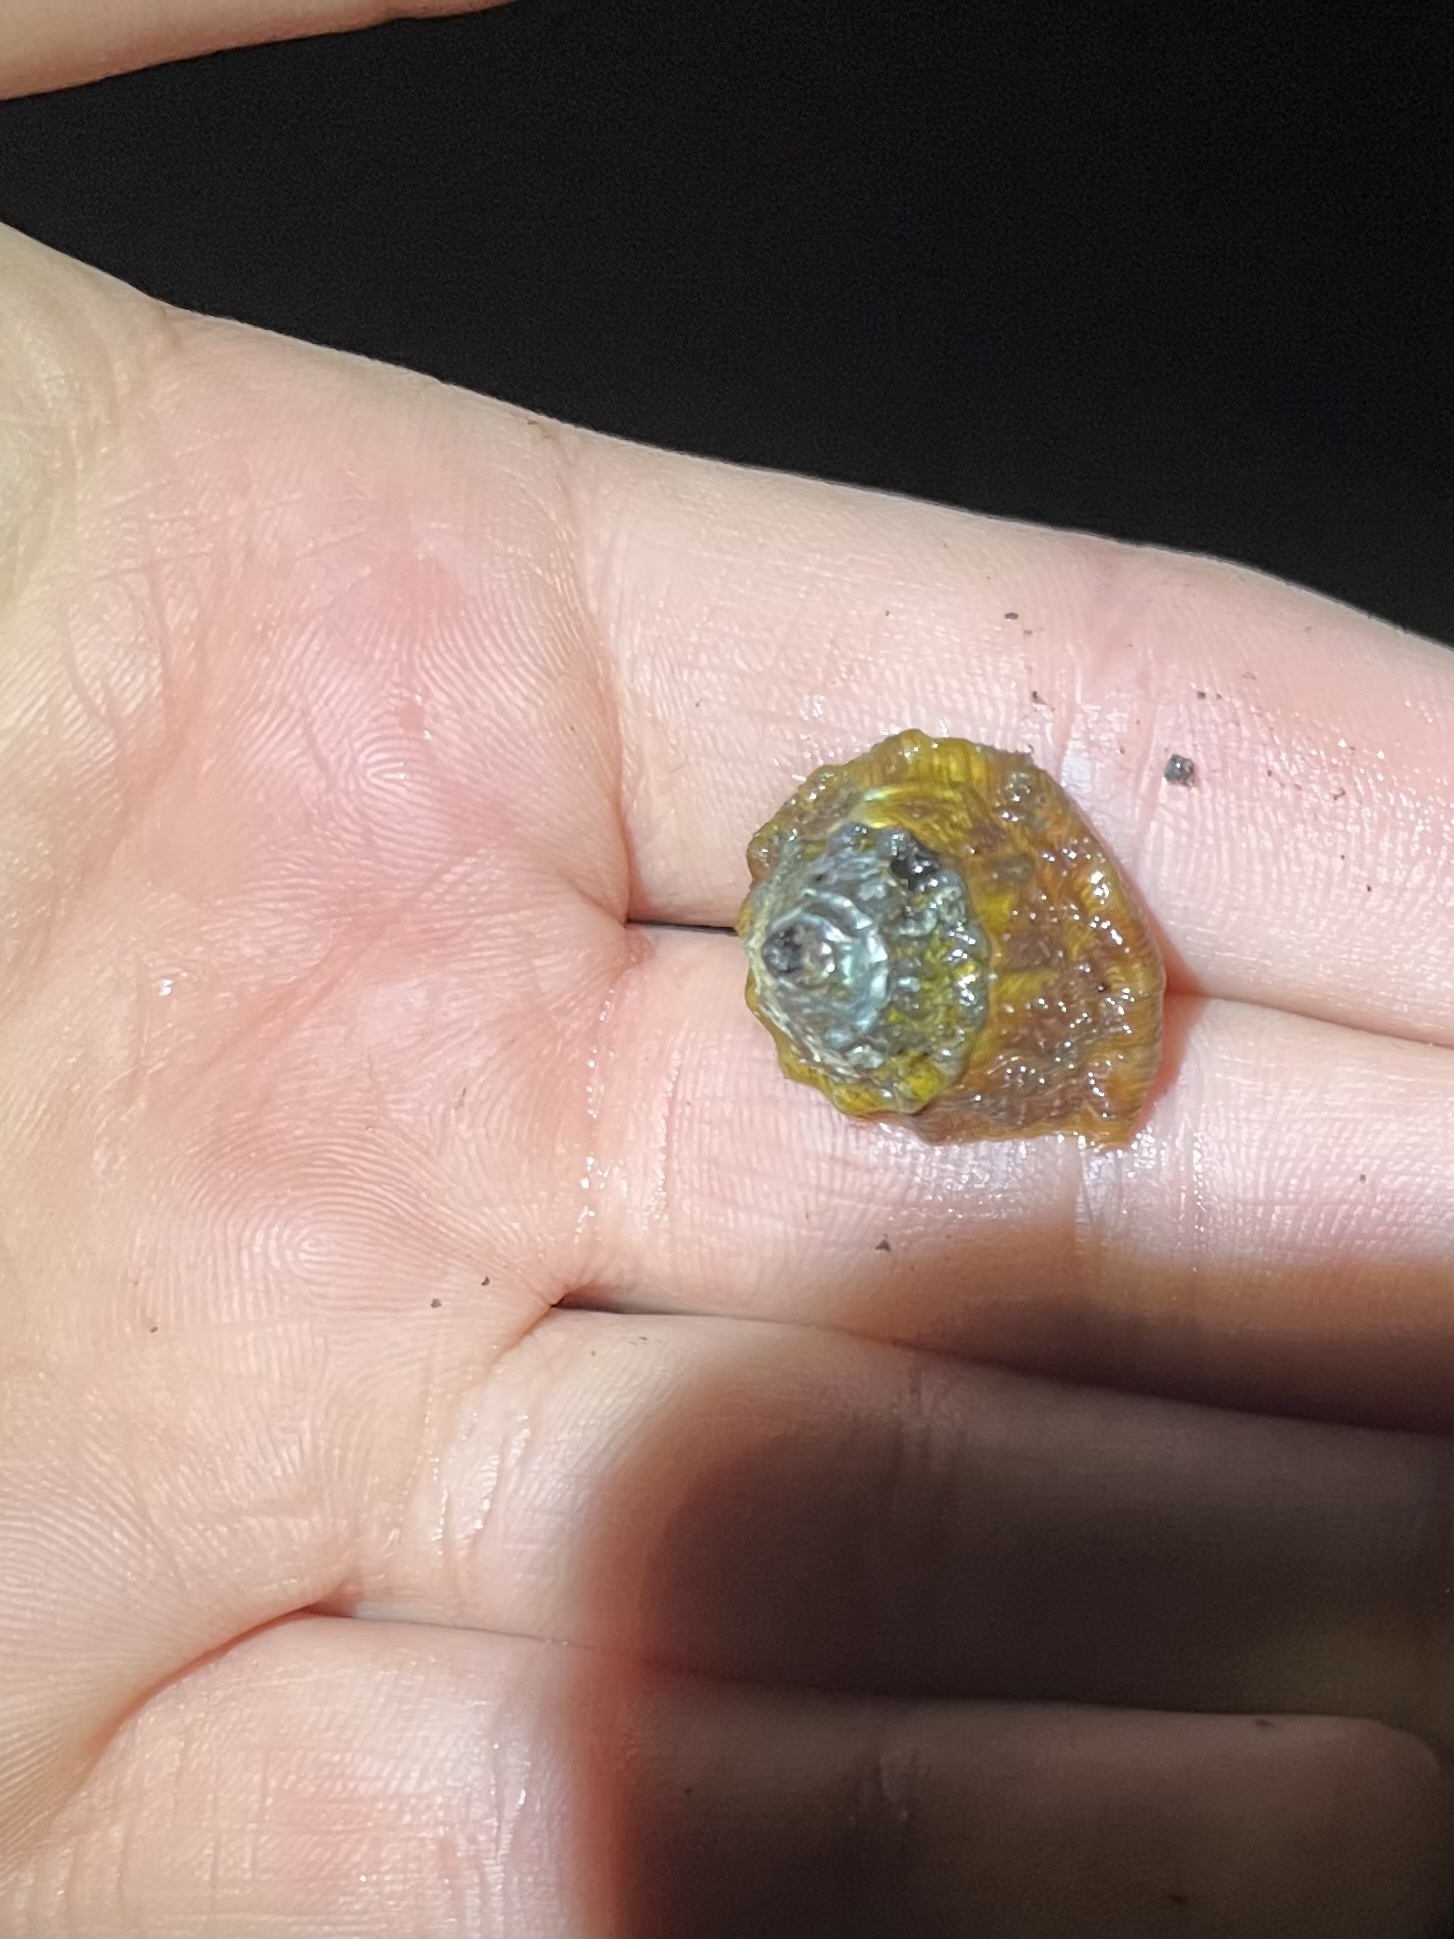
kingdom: Animalia
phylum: Mollusca
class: Gastropoda
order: Trochida
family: Turbinidae
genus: Megastraea
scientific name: Megastraea undosa
